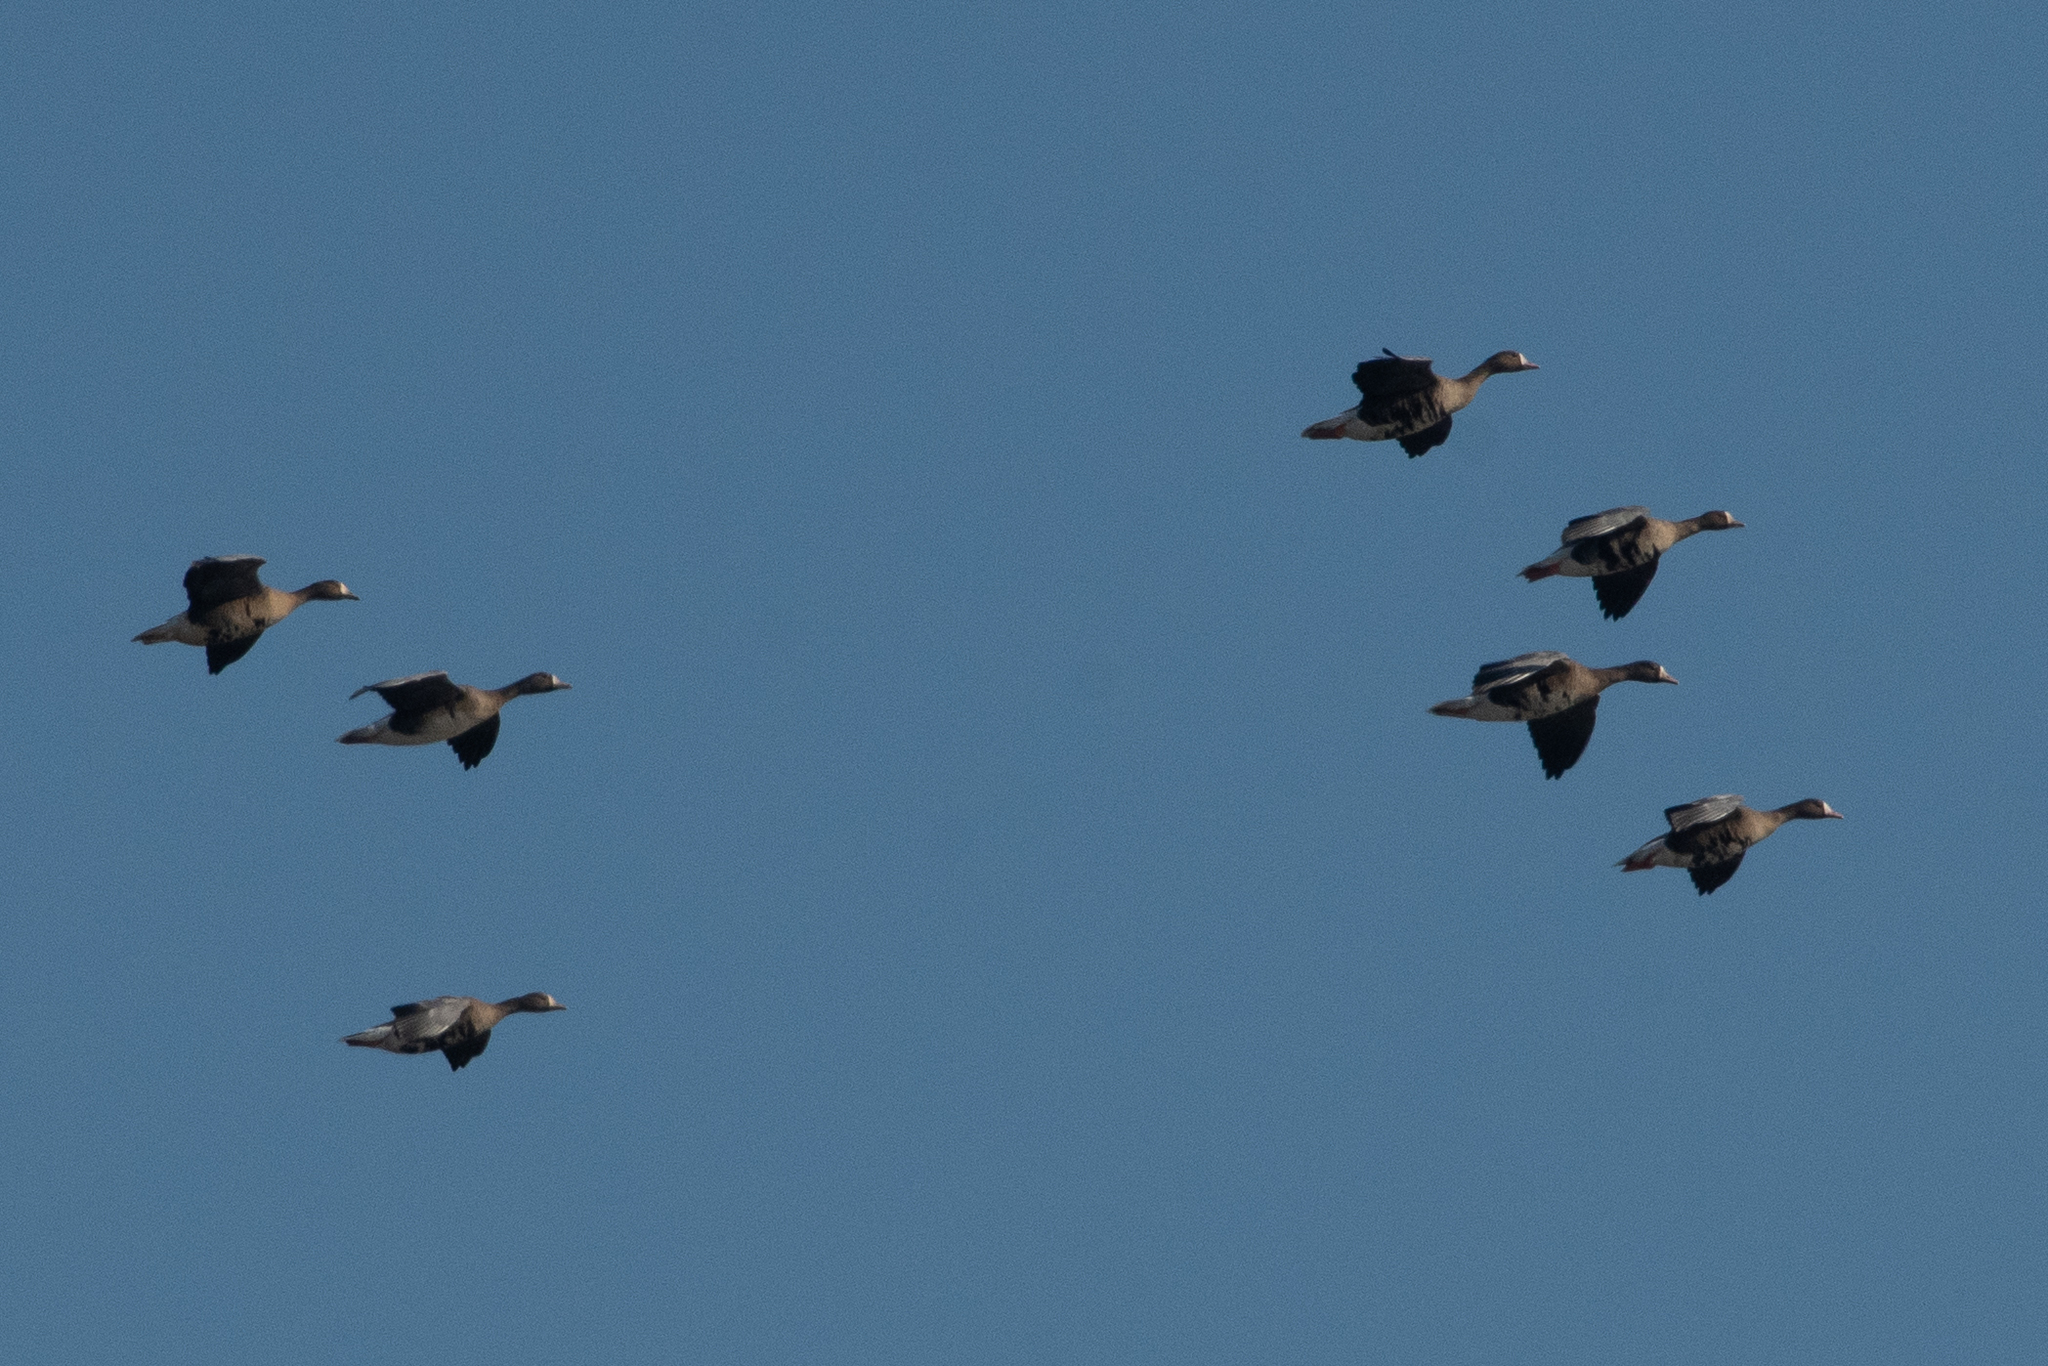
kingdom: Animalia
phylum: Chordata
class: Aves
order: Anseriformes
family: Anatidae
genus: Anser
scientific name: Anser albifrons
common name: Greater white-fronted goose
